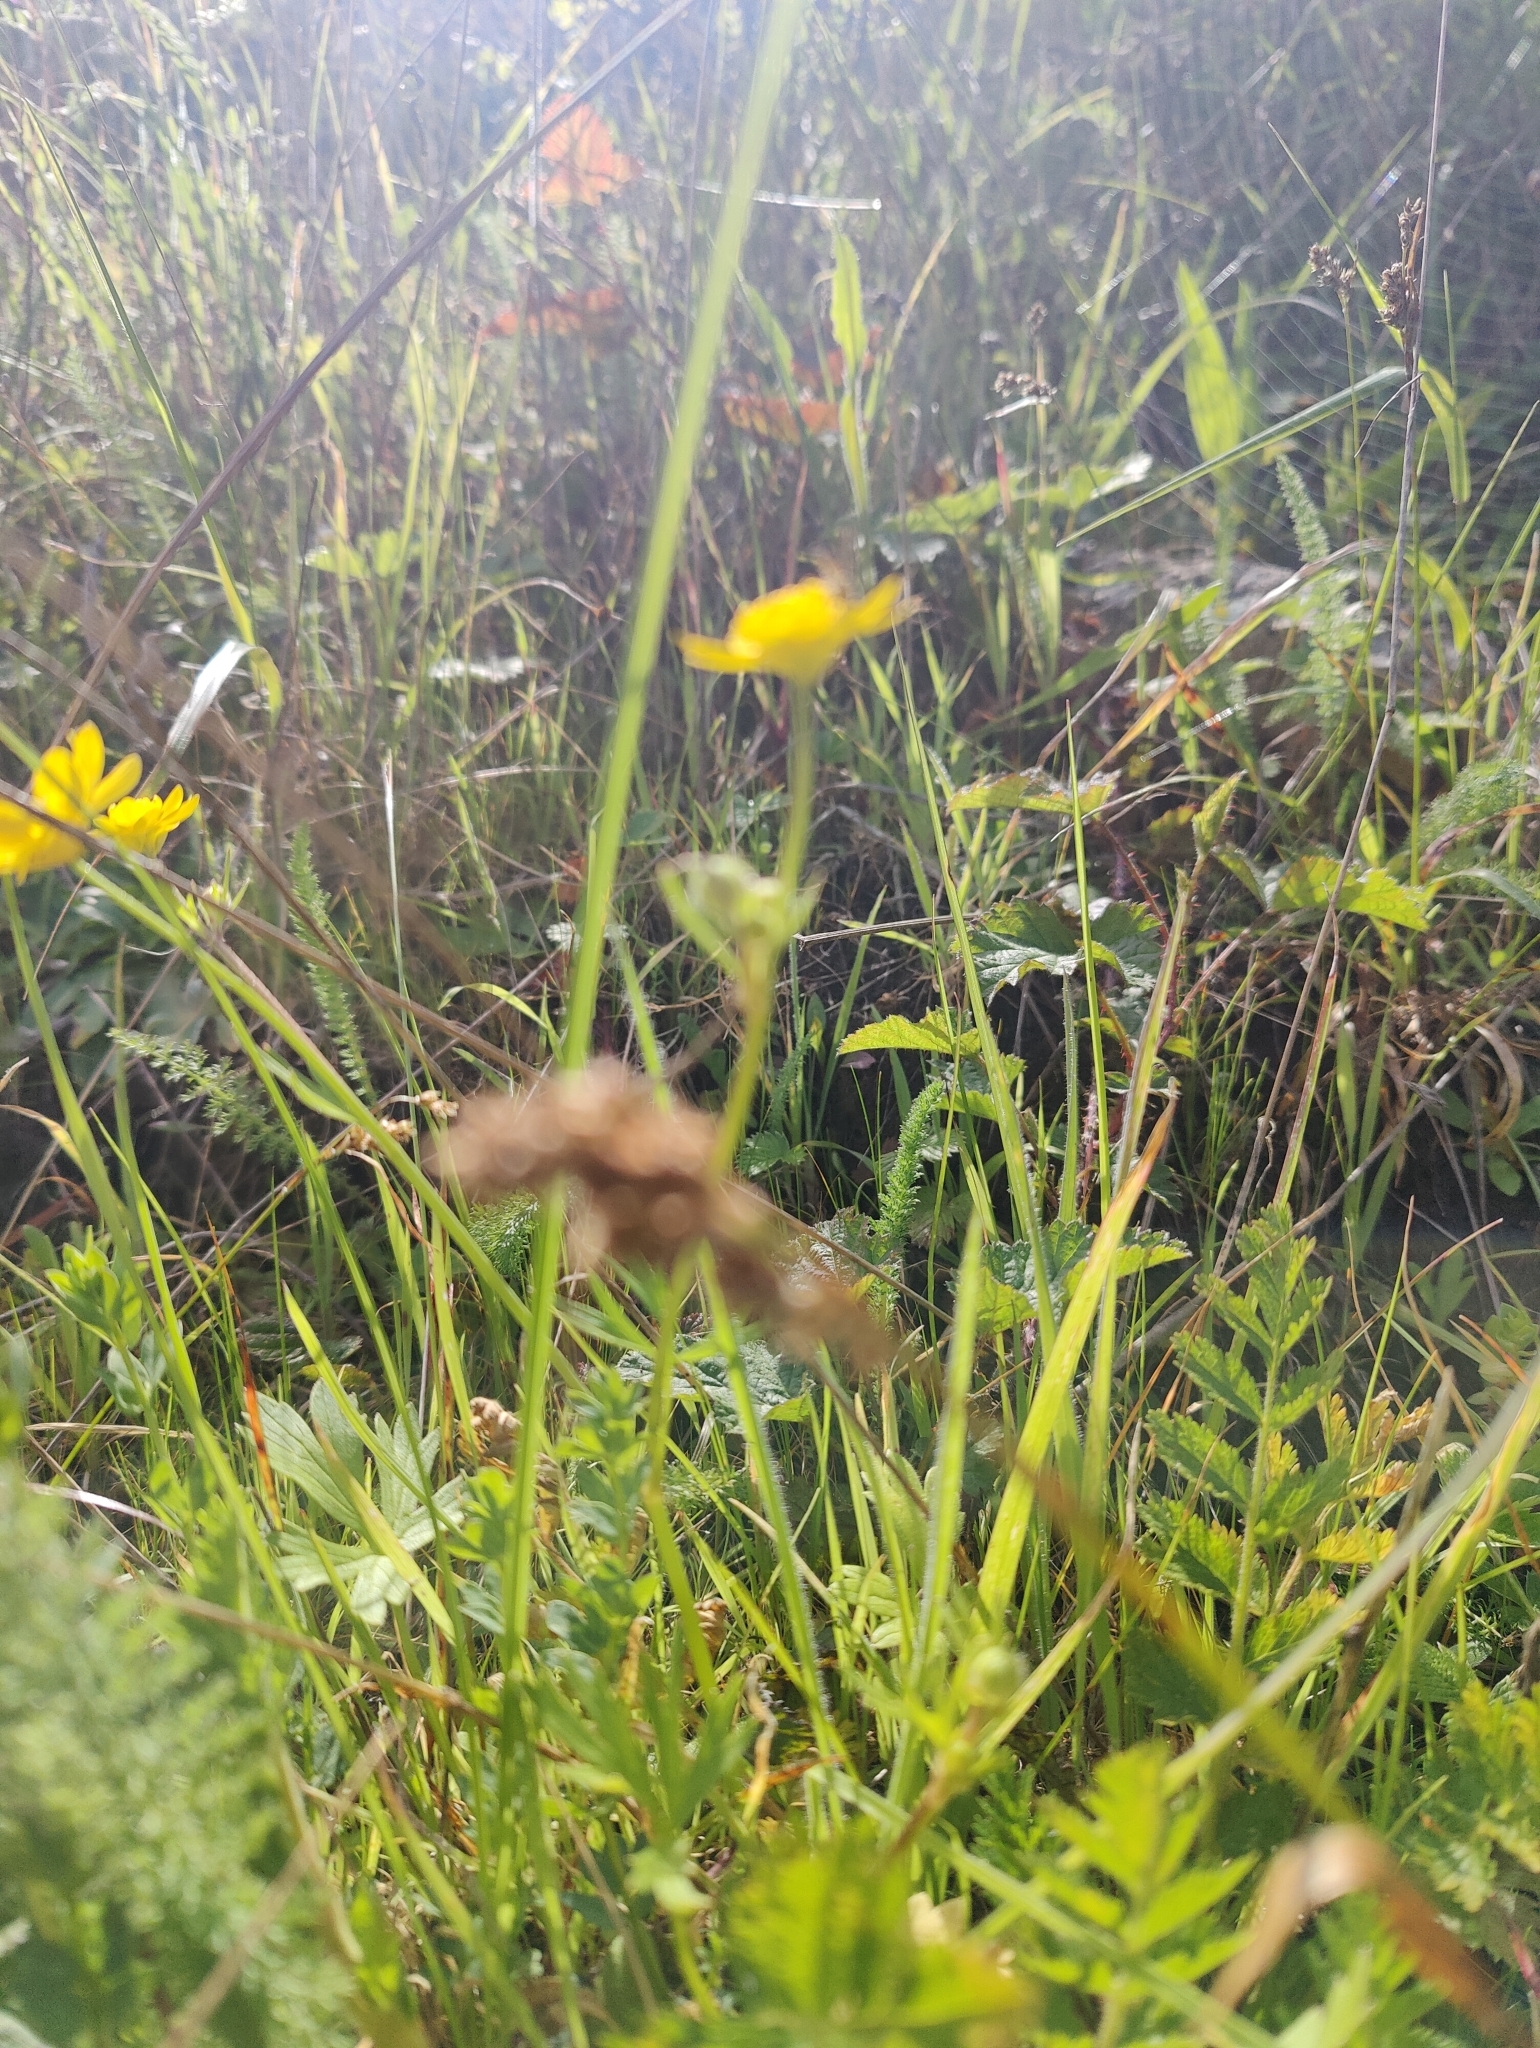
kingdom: Plantae
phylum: Tracheophyta
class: Magnoliopsida
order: Ranunculales
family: Ranunculaceae
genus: Ranunculus
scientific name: Ranunculus californicus
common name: California buttercup
